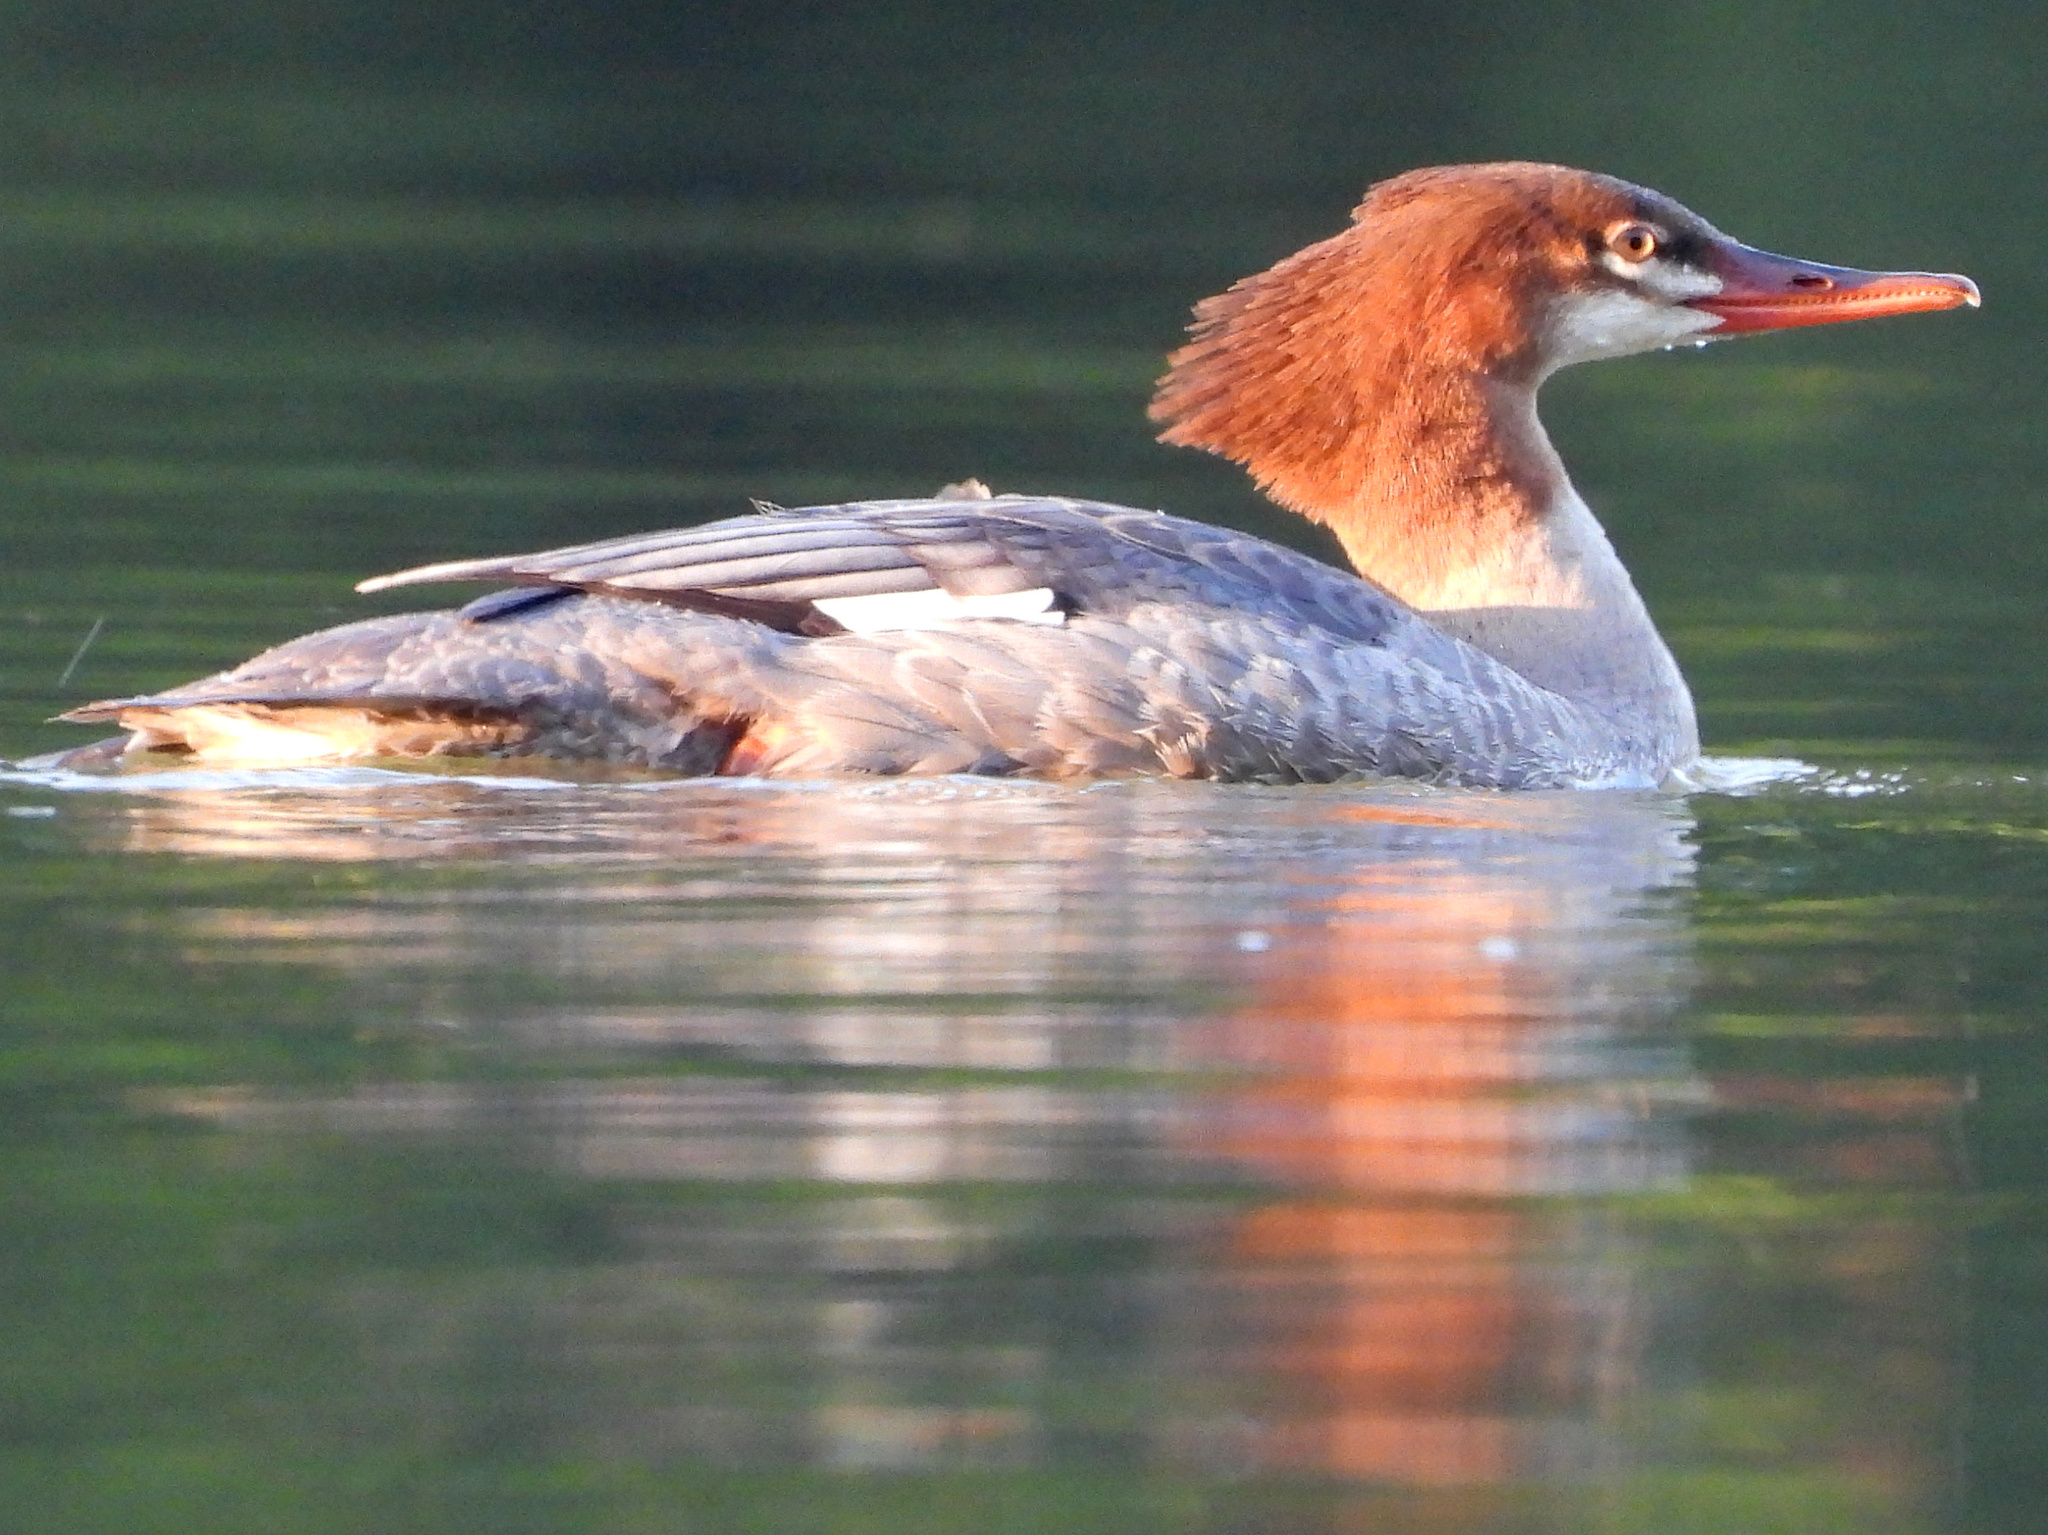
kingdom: Animalia
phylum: Chordata
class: Aves
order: Anseriformes
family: Anatidae
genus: Mergus
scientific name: Mergus merganser
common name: Common merganser
